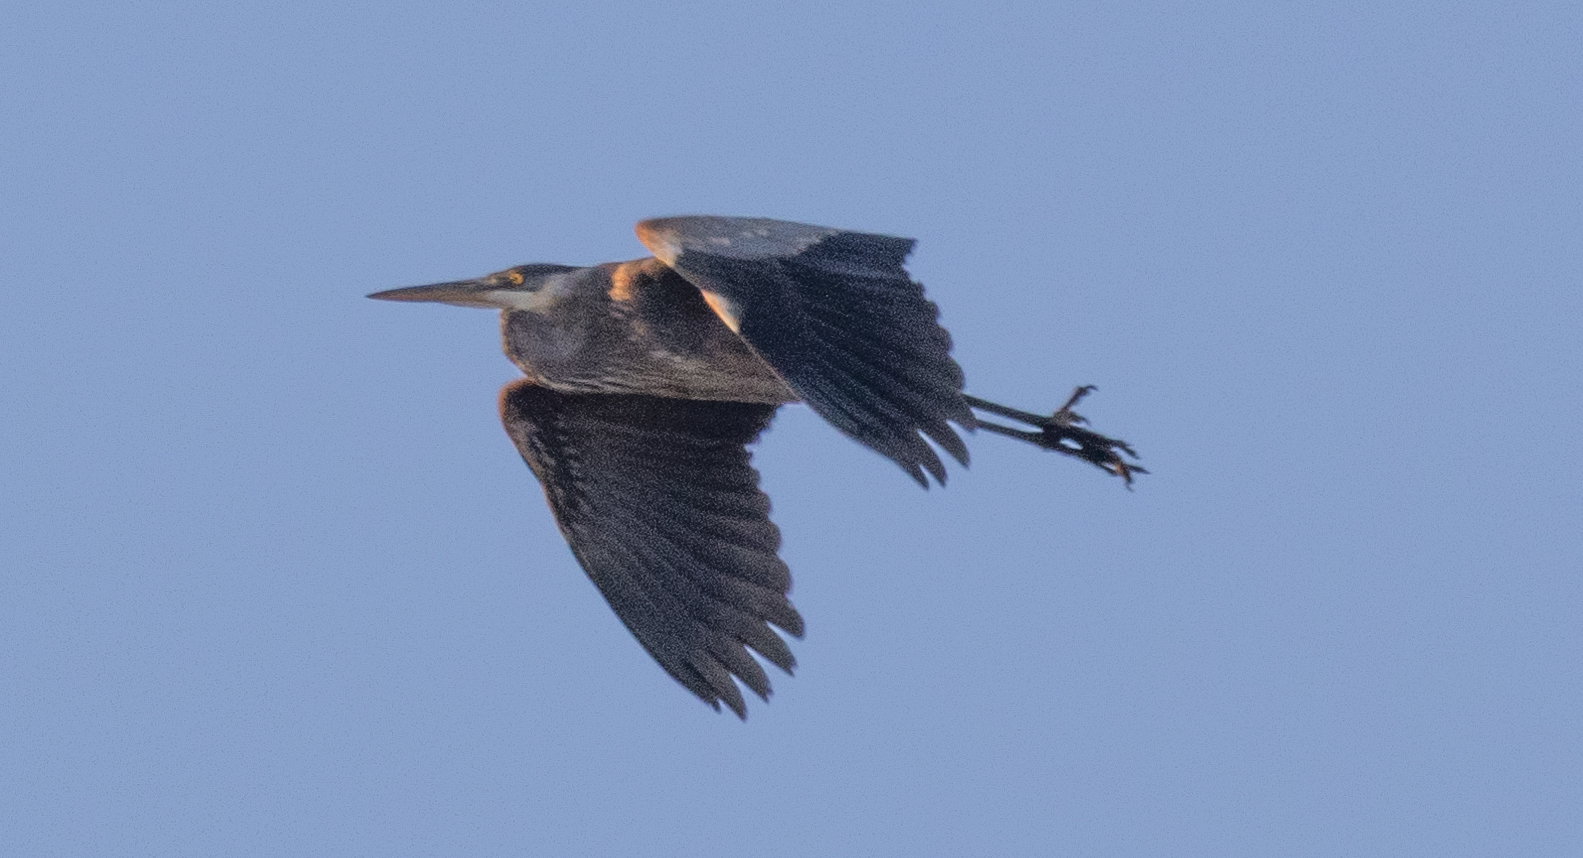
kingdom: Animalia
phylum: Chordata
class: Aves
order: Pelecaniformes
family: Ardeidae
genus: Ardea
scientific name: Ardea herodias
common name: Great blue heron
